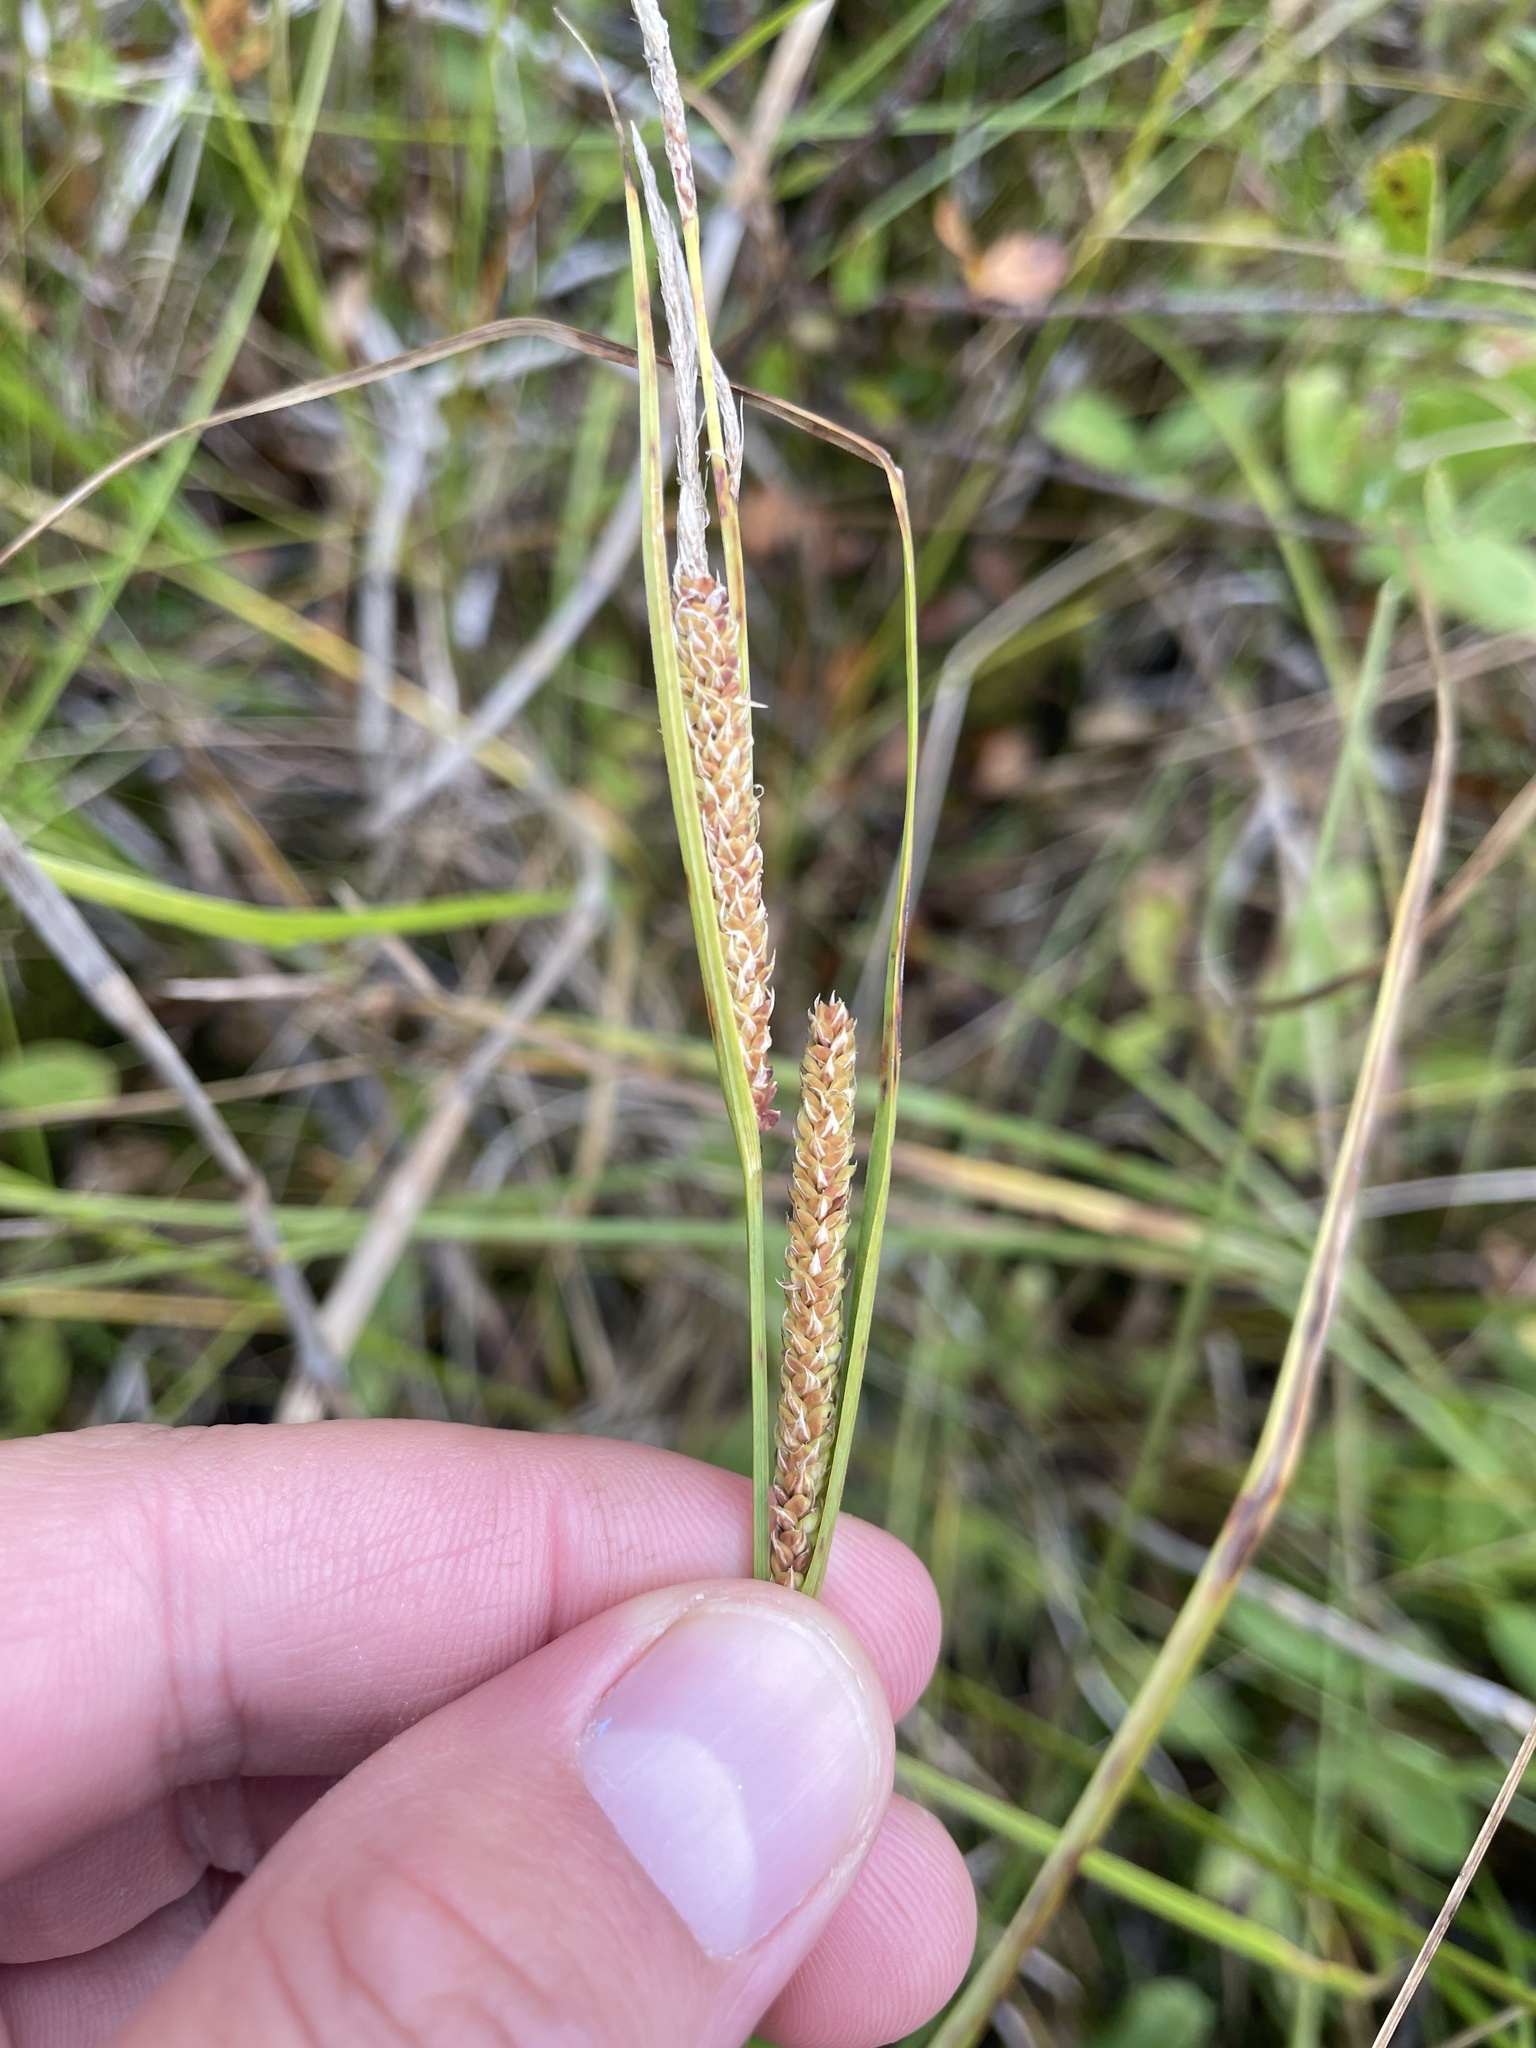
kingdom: Plantae
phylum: Tracheophyta
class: Liliopsida
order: Poales
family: Cyperaceae
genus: Carex
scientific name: Carex aquatilis
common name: Water sedge
